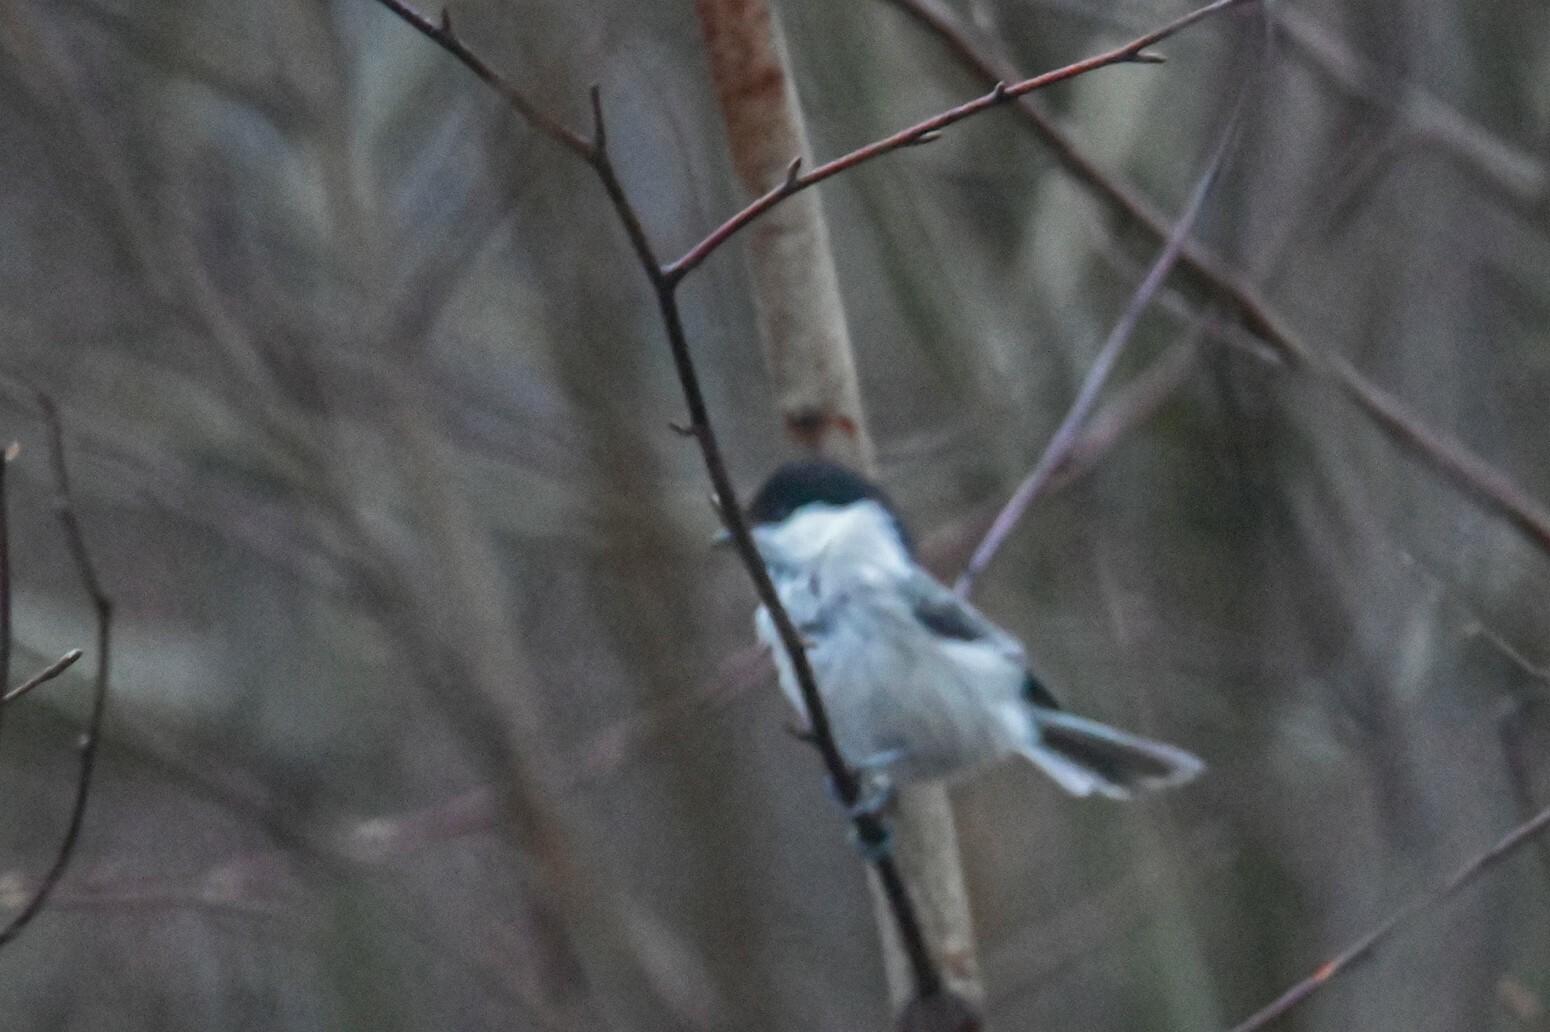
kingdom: Animalia
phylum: Chordata
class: Aves
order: Passeriformes
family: Paridae
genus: Poecile
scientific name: Poecile montanus
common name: Willow tit
